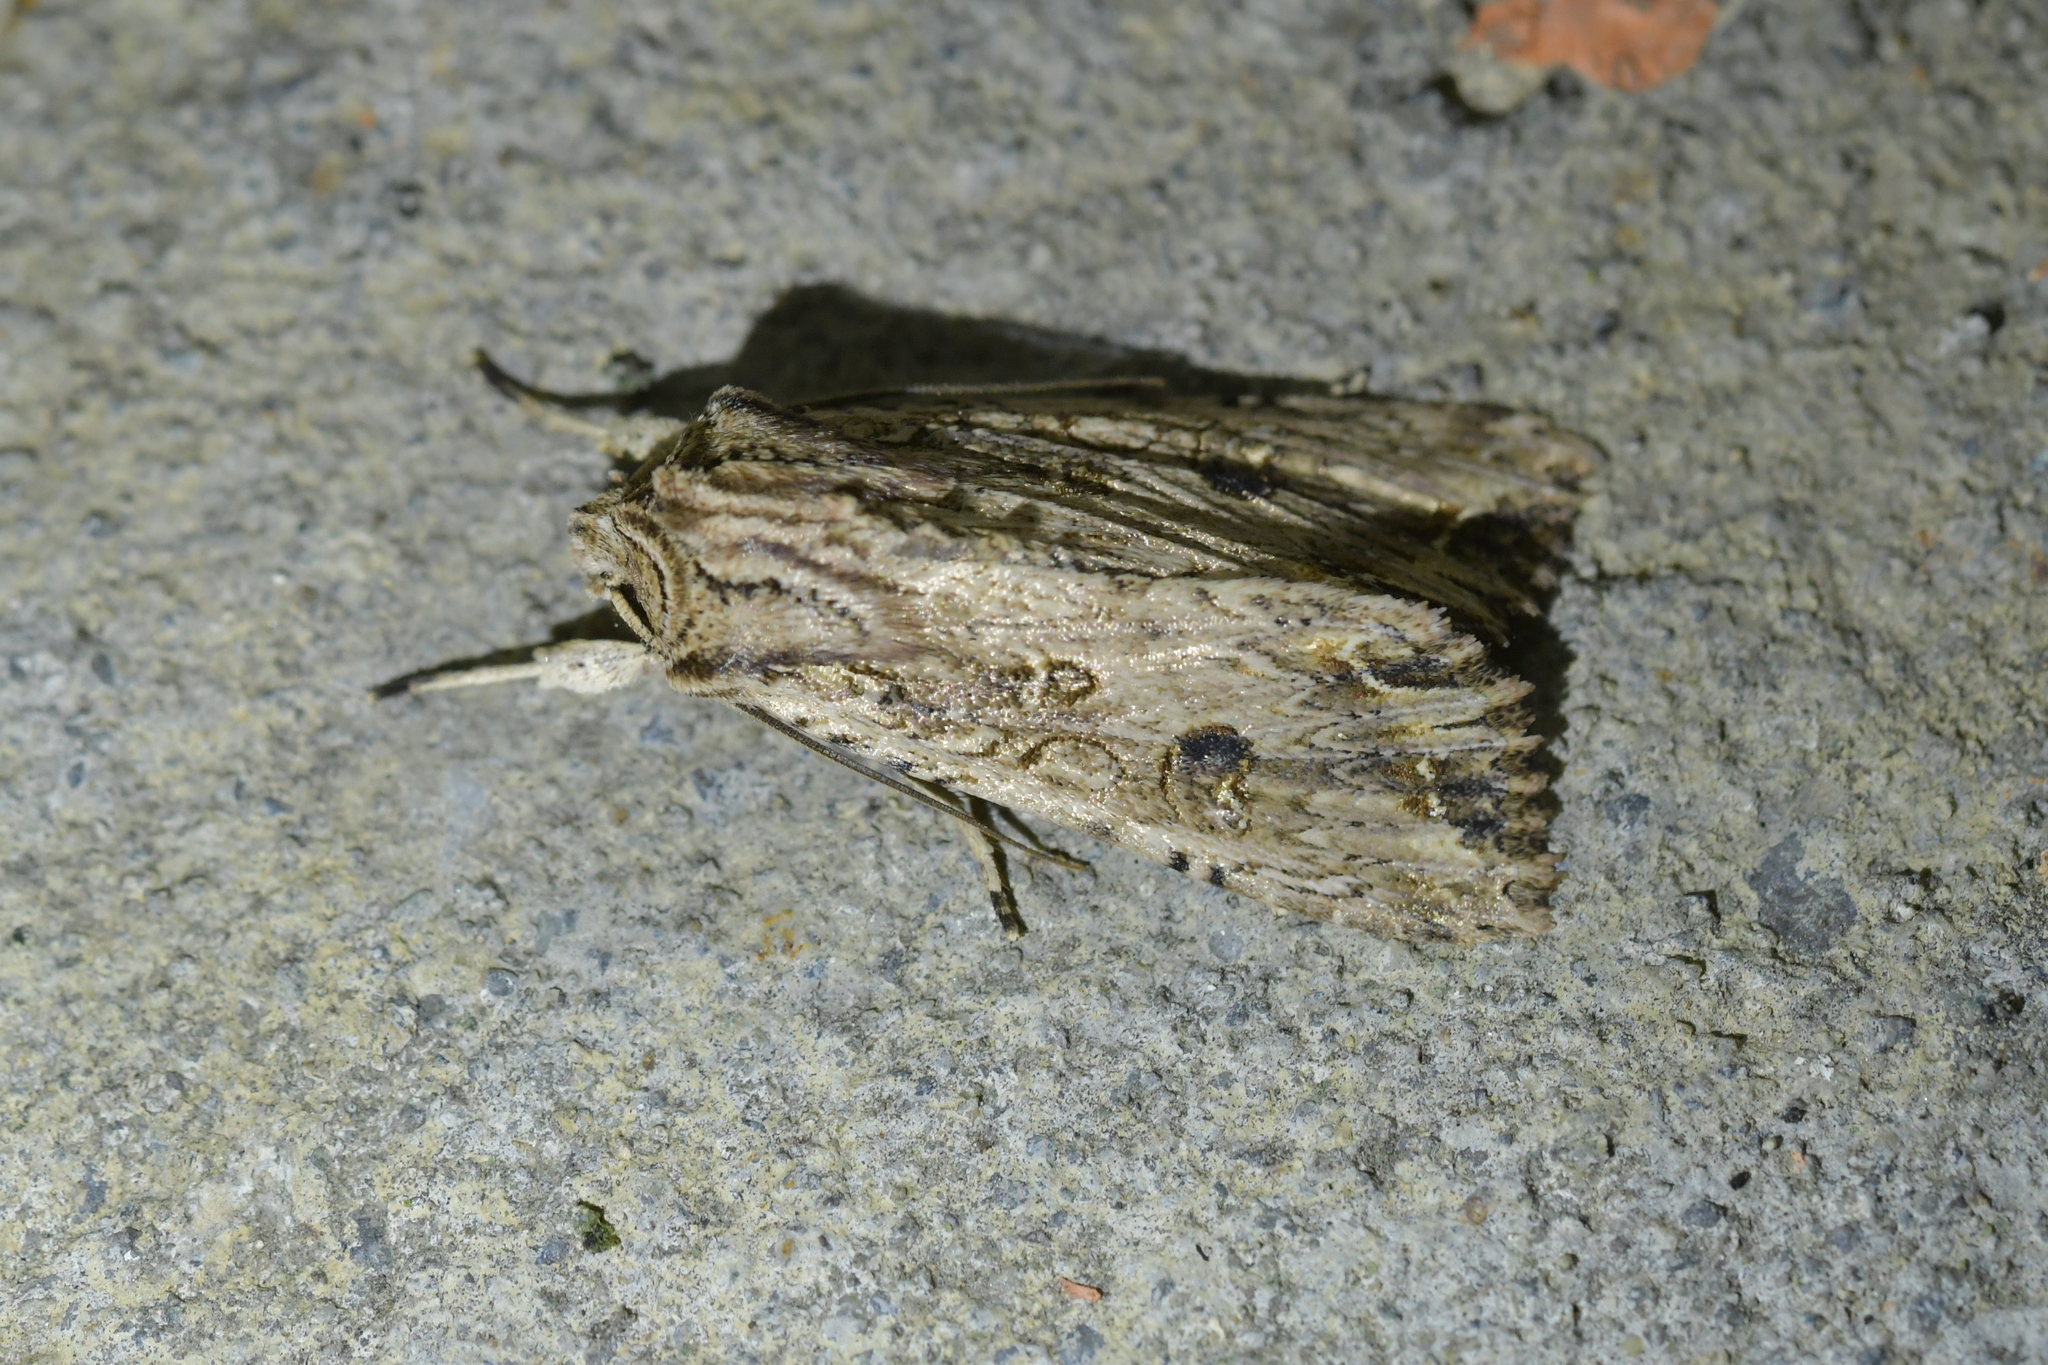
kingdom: Animalia
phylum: Arthropoda
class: Insecta
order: Lepidoptera
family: Noctuidae
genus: Ichneutica
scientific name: Ichneutica lignana
